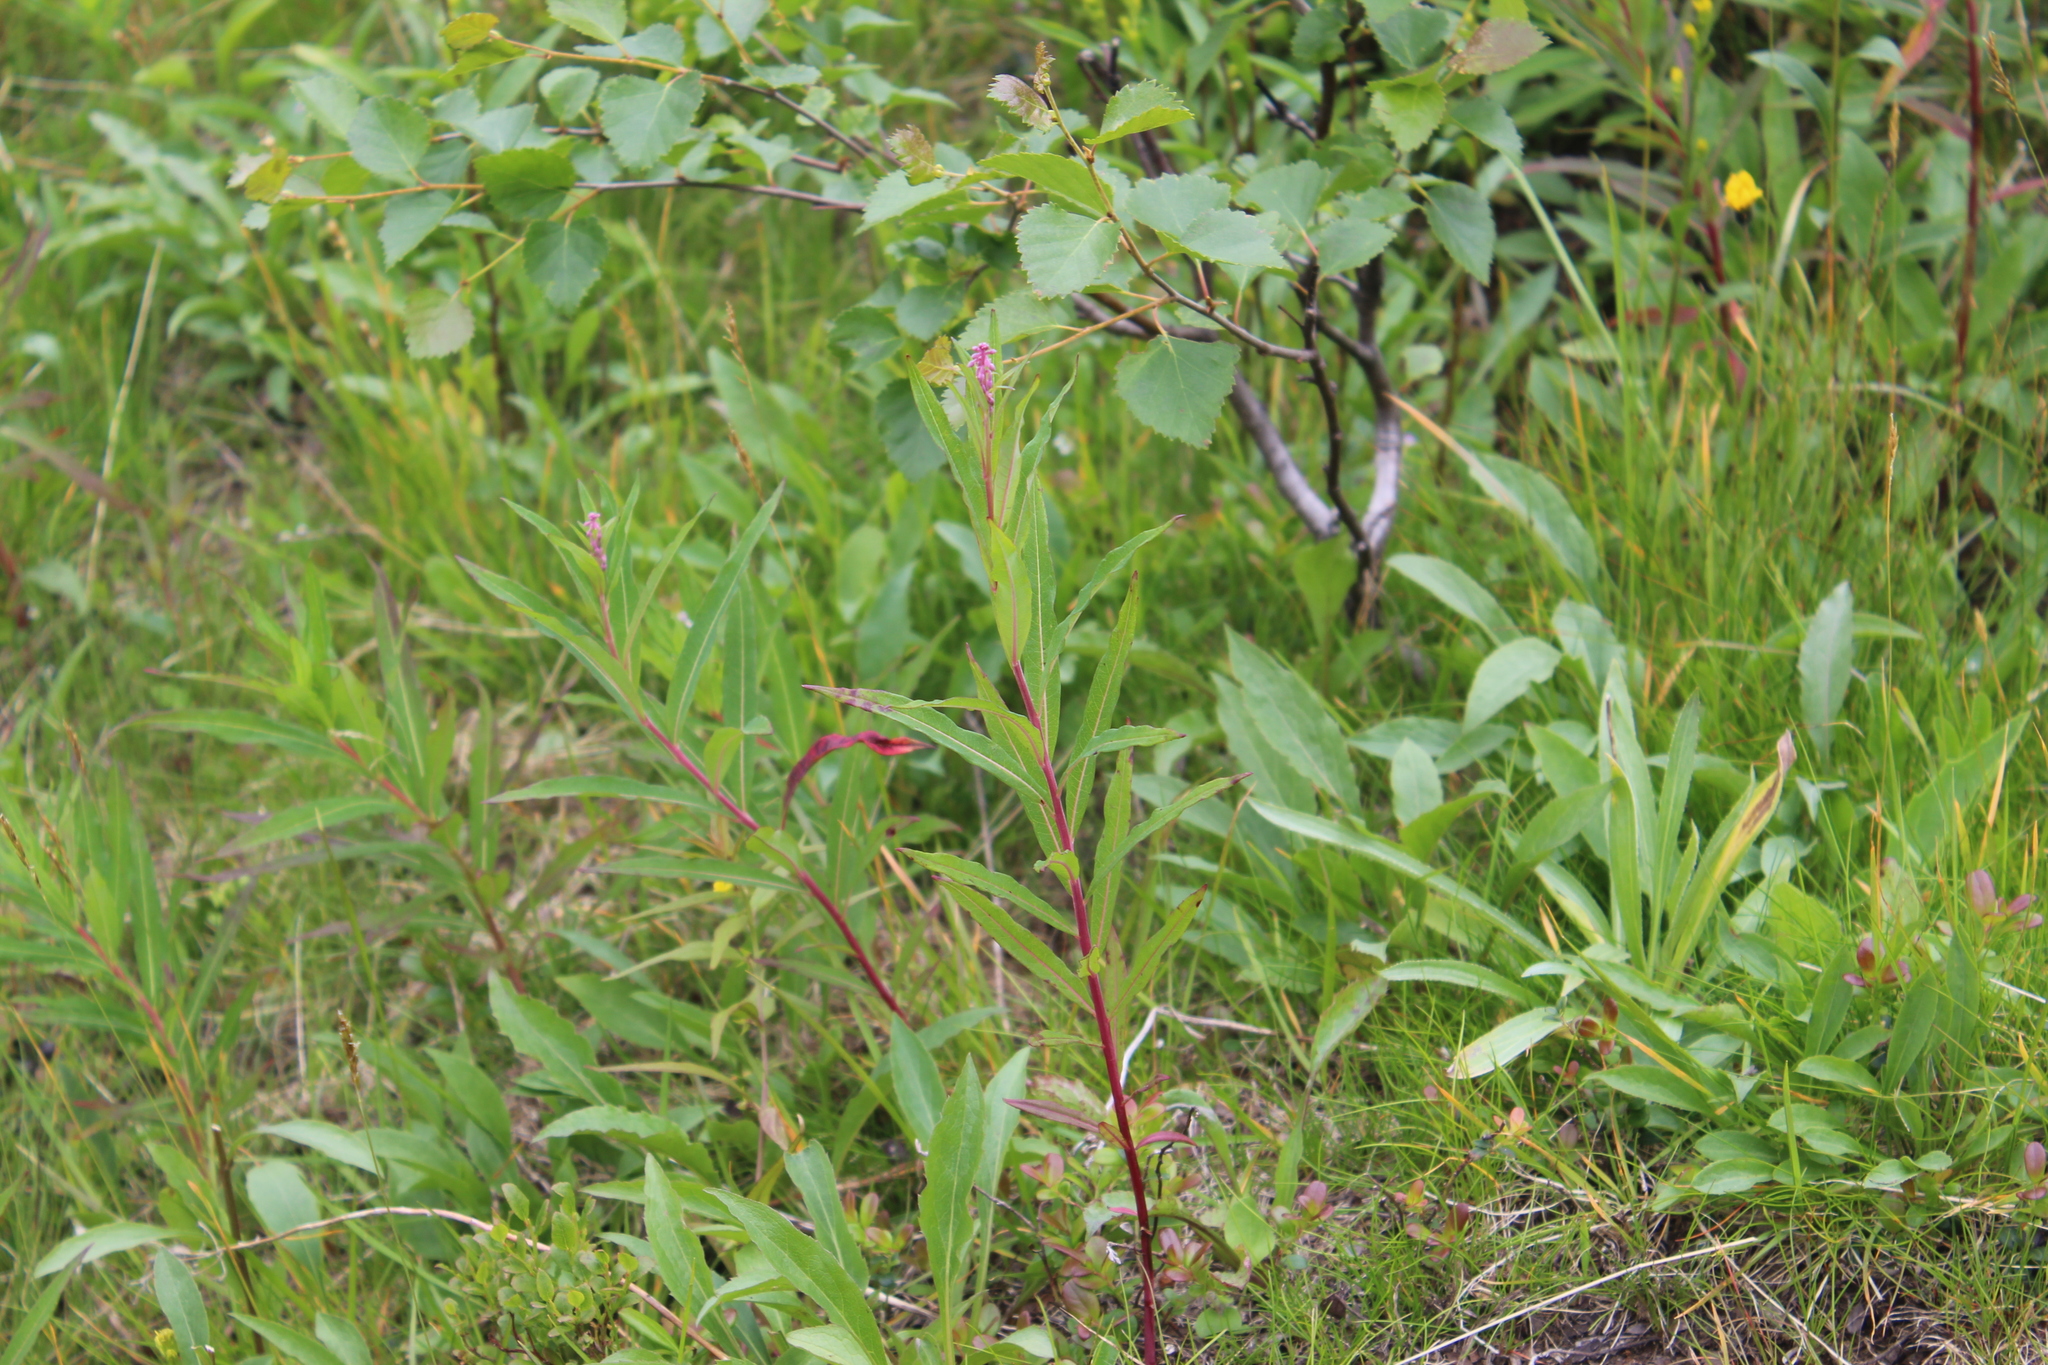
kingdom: Plantae
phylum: Tracheophyta
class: Magnoliopsida
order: Myrtales
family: Onagraceae
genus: Chamaenerion
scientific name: Chamaenerion angustifolium
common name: Fireweed
